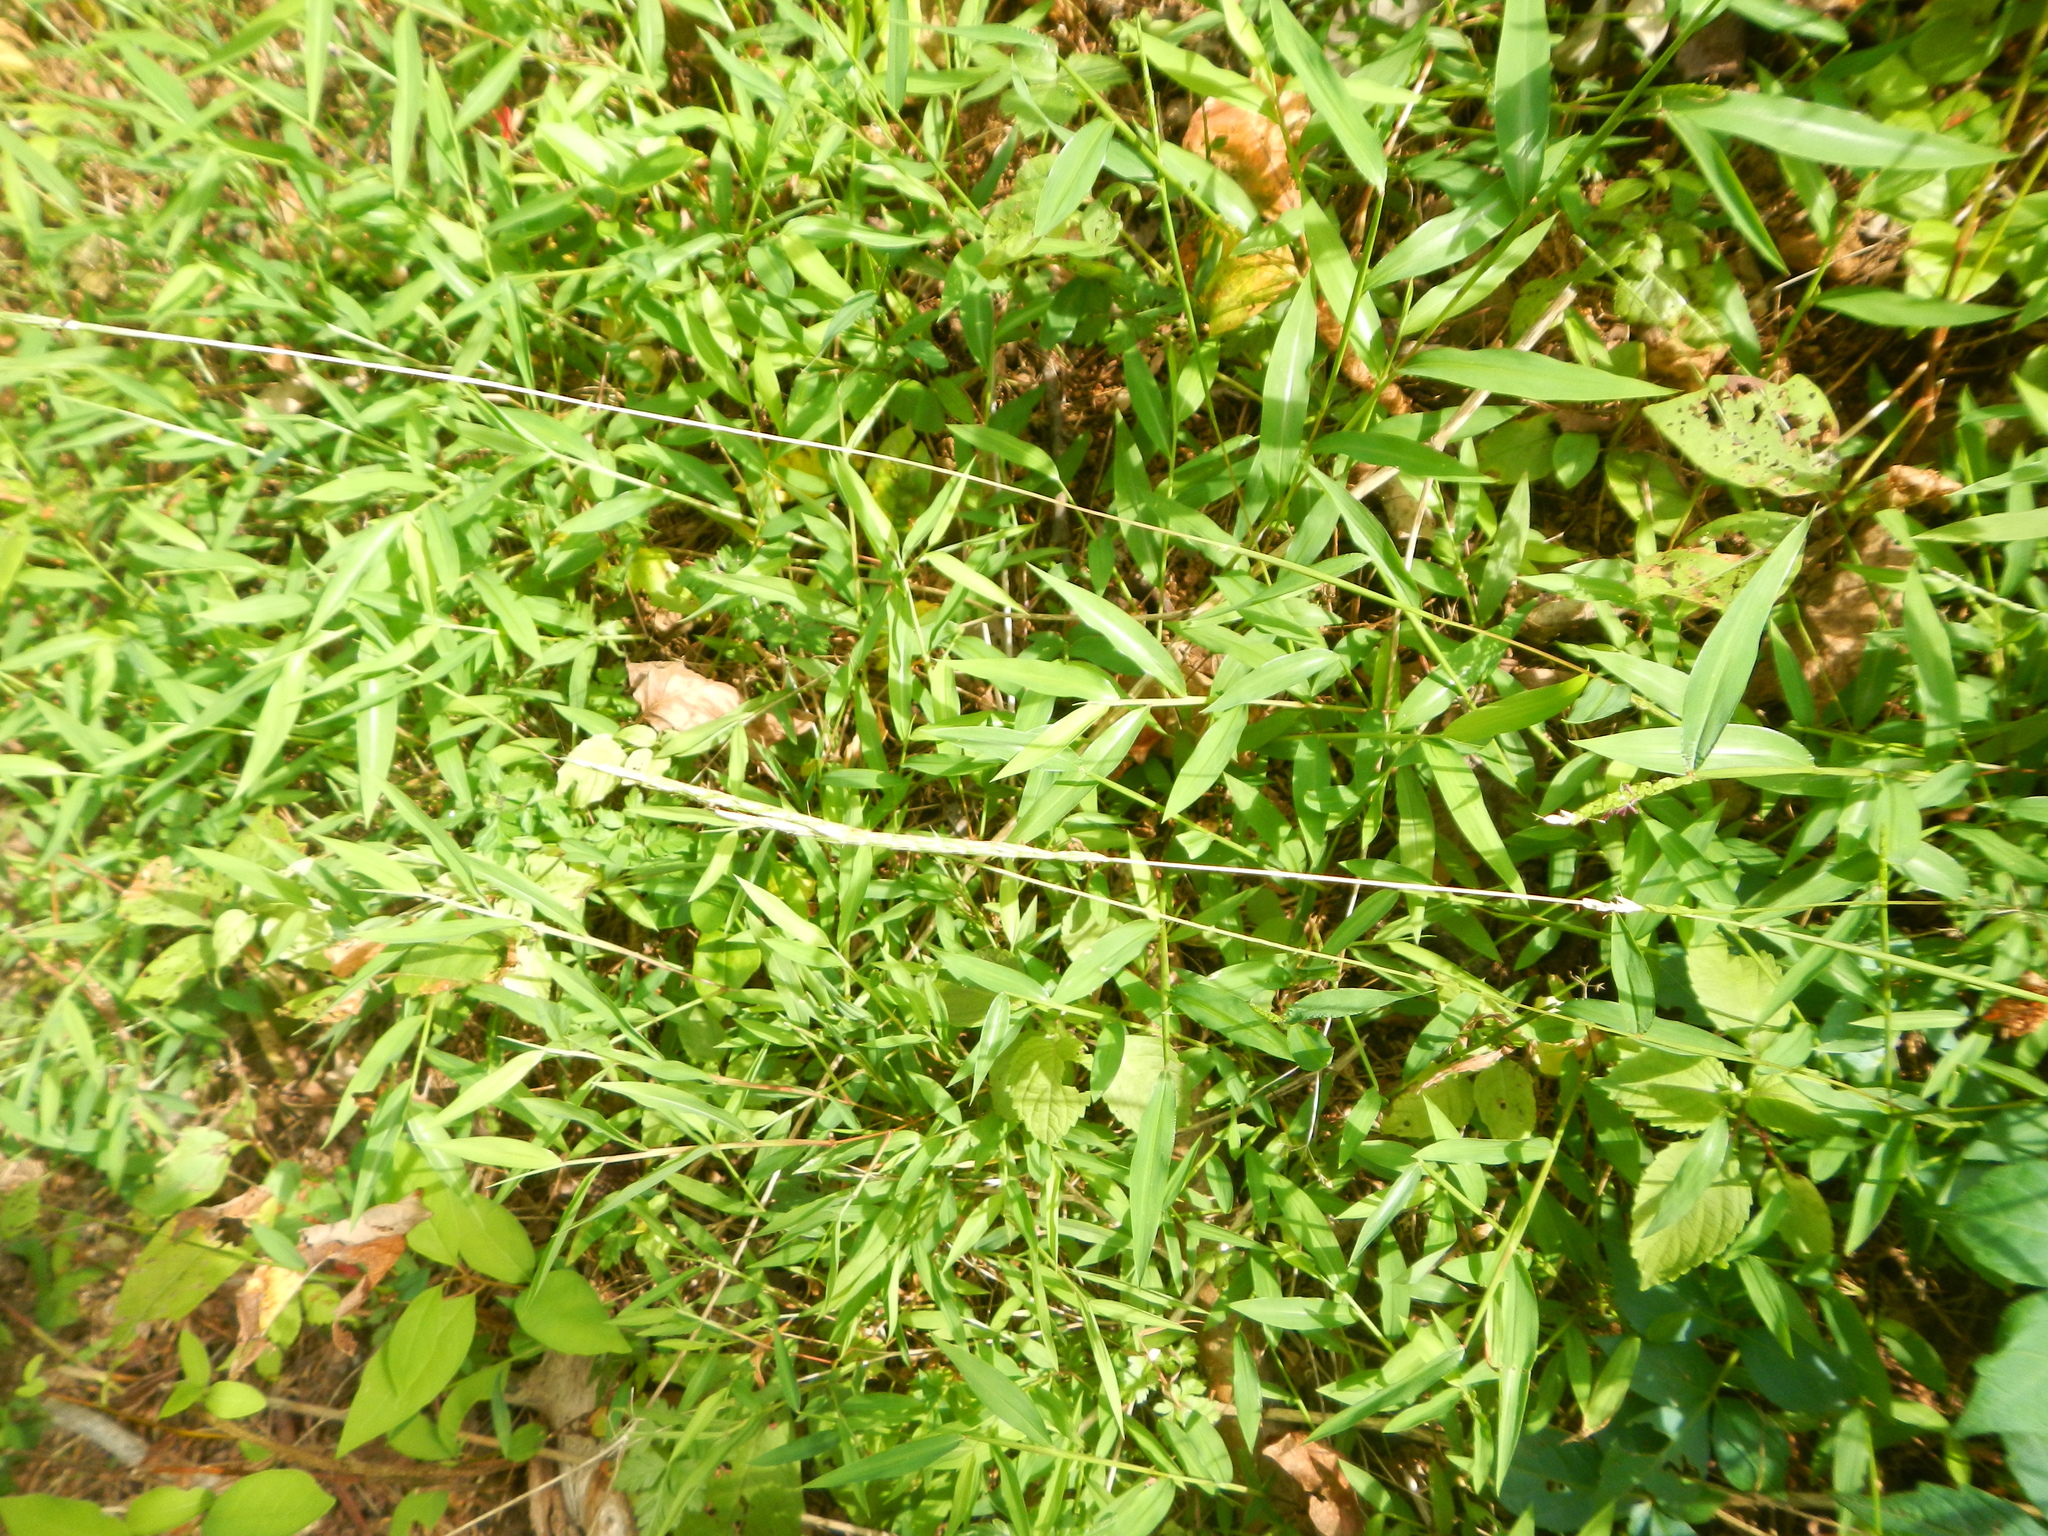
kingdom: Plantae
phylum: Tracheophyta
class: Liliopsida
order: Poales
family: Poaceae
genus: Microstegium
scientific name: Microstegium vimineum
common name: Japanese stiltgrass
